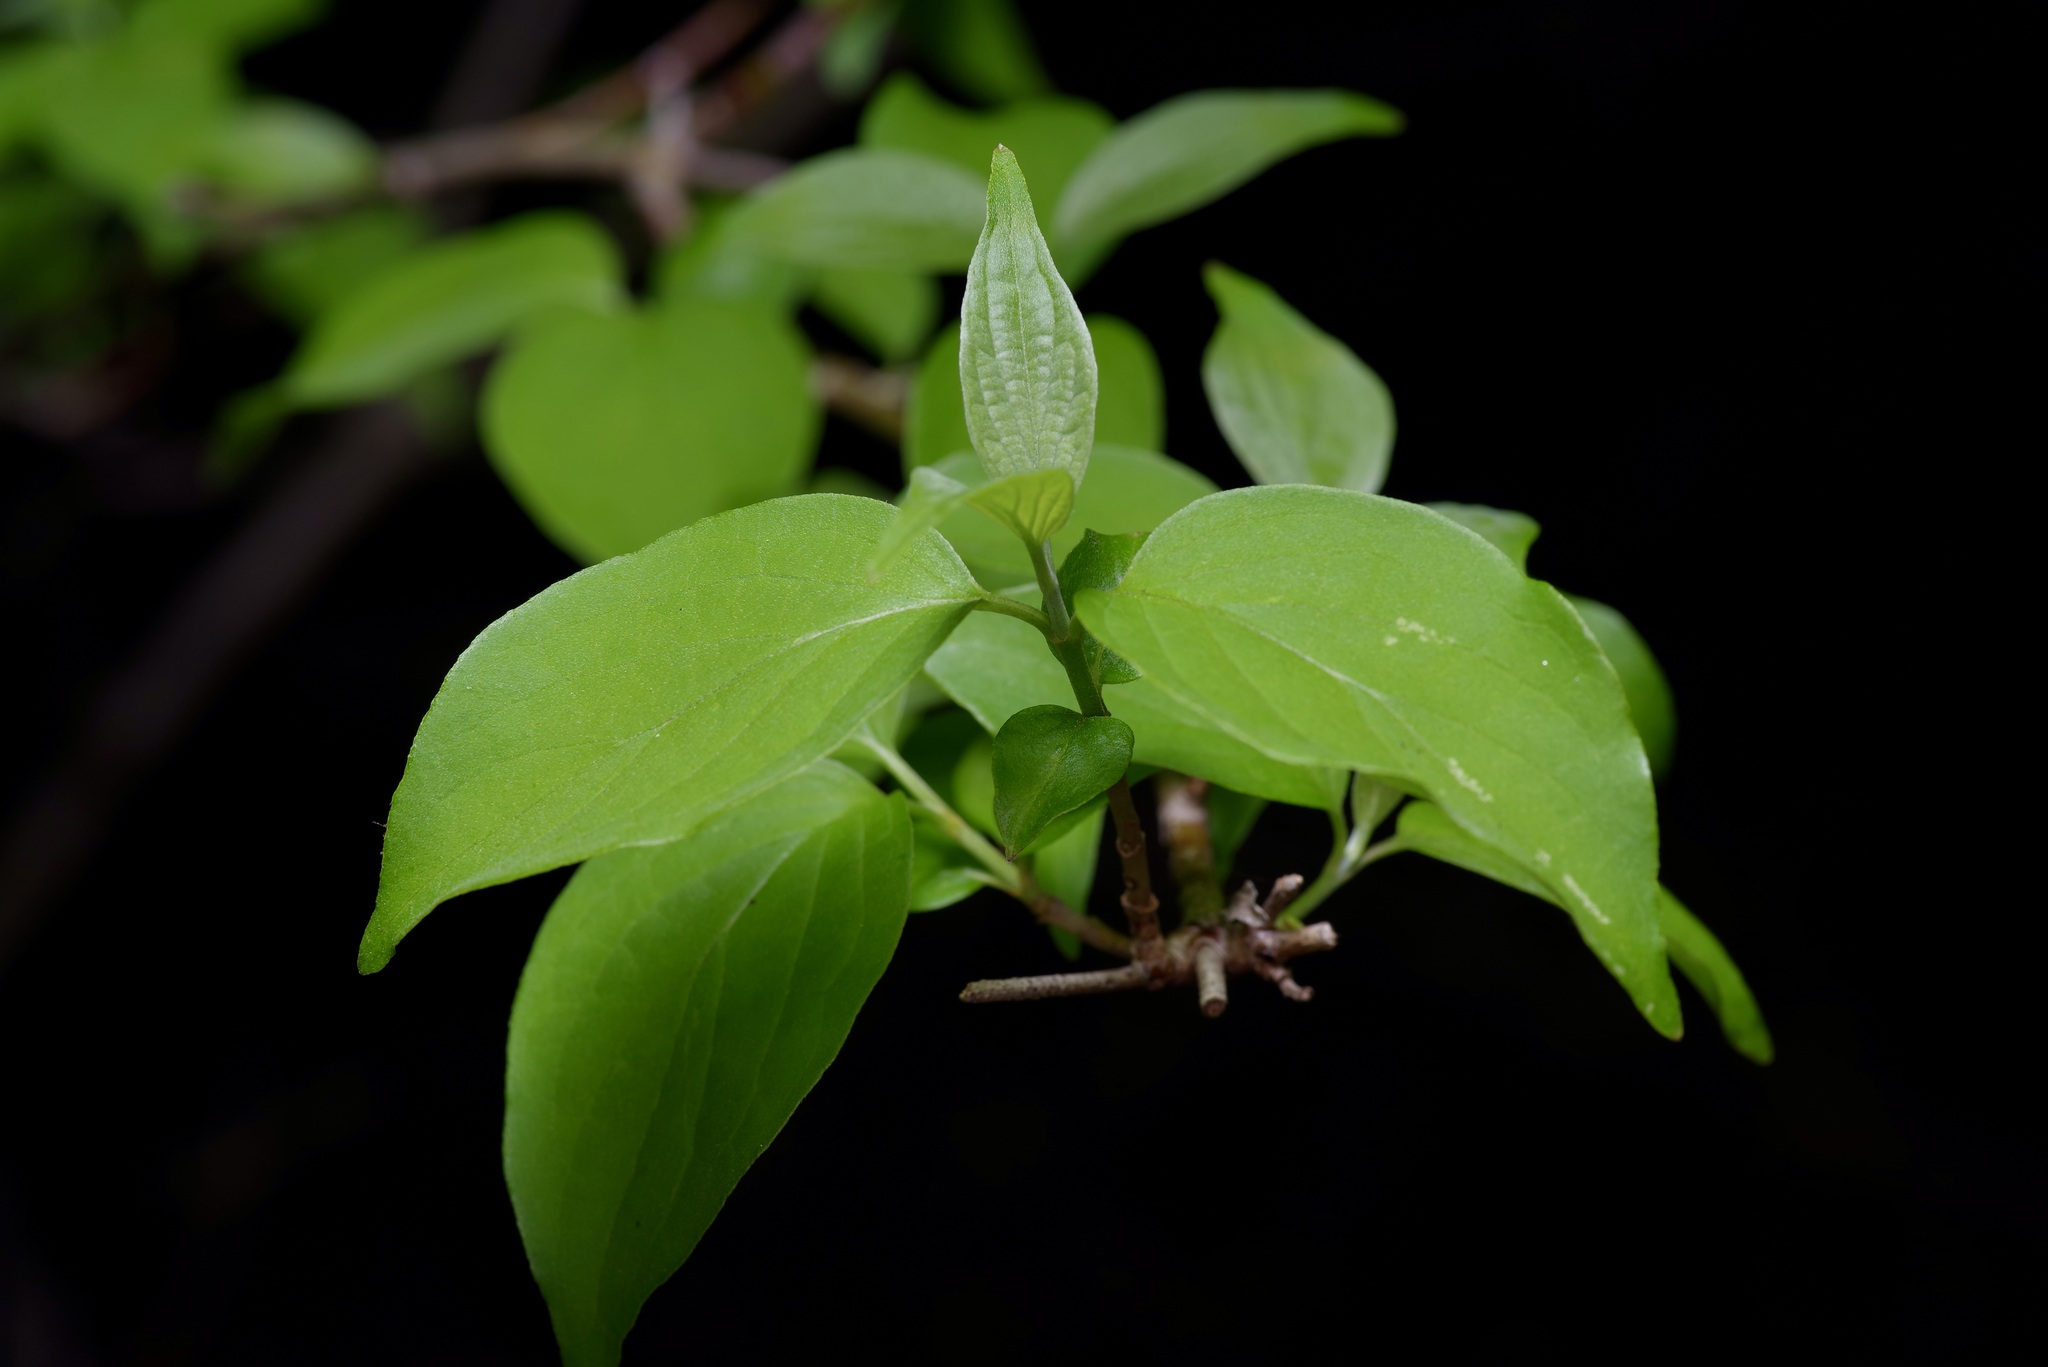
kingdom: Plantae
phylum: Tracheophyta
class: Magnoliopsida
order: Cornales
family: Cornaceae
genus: Cornus
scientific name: Cornus drummondii
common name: Rough-leaf dogwood
